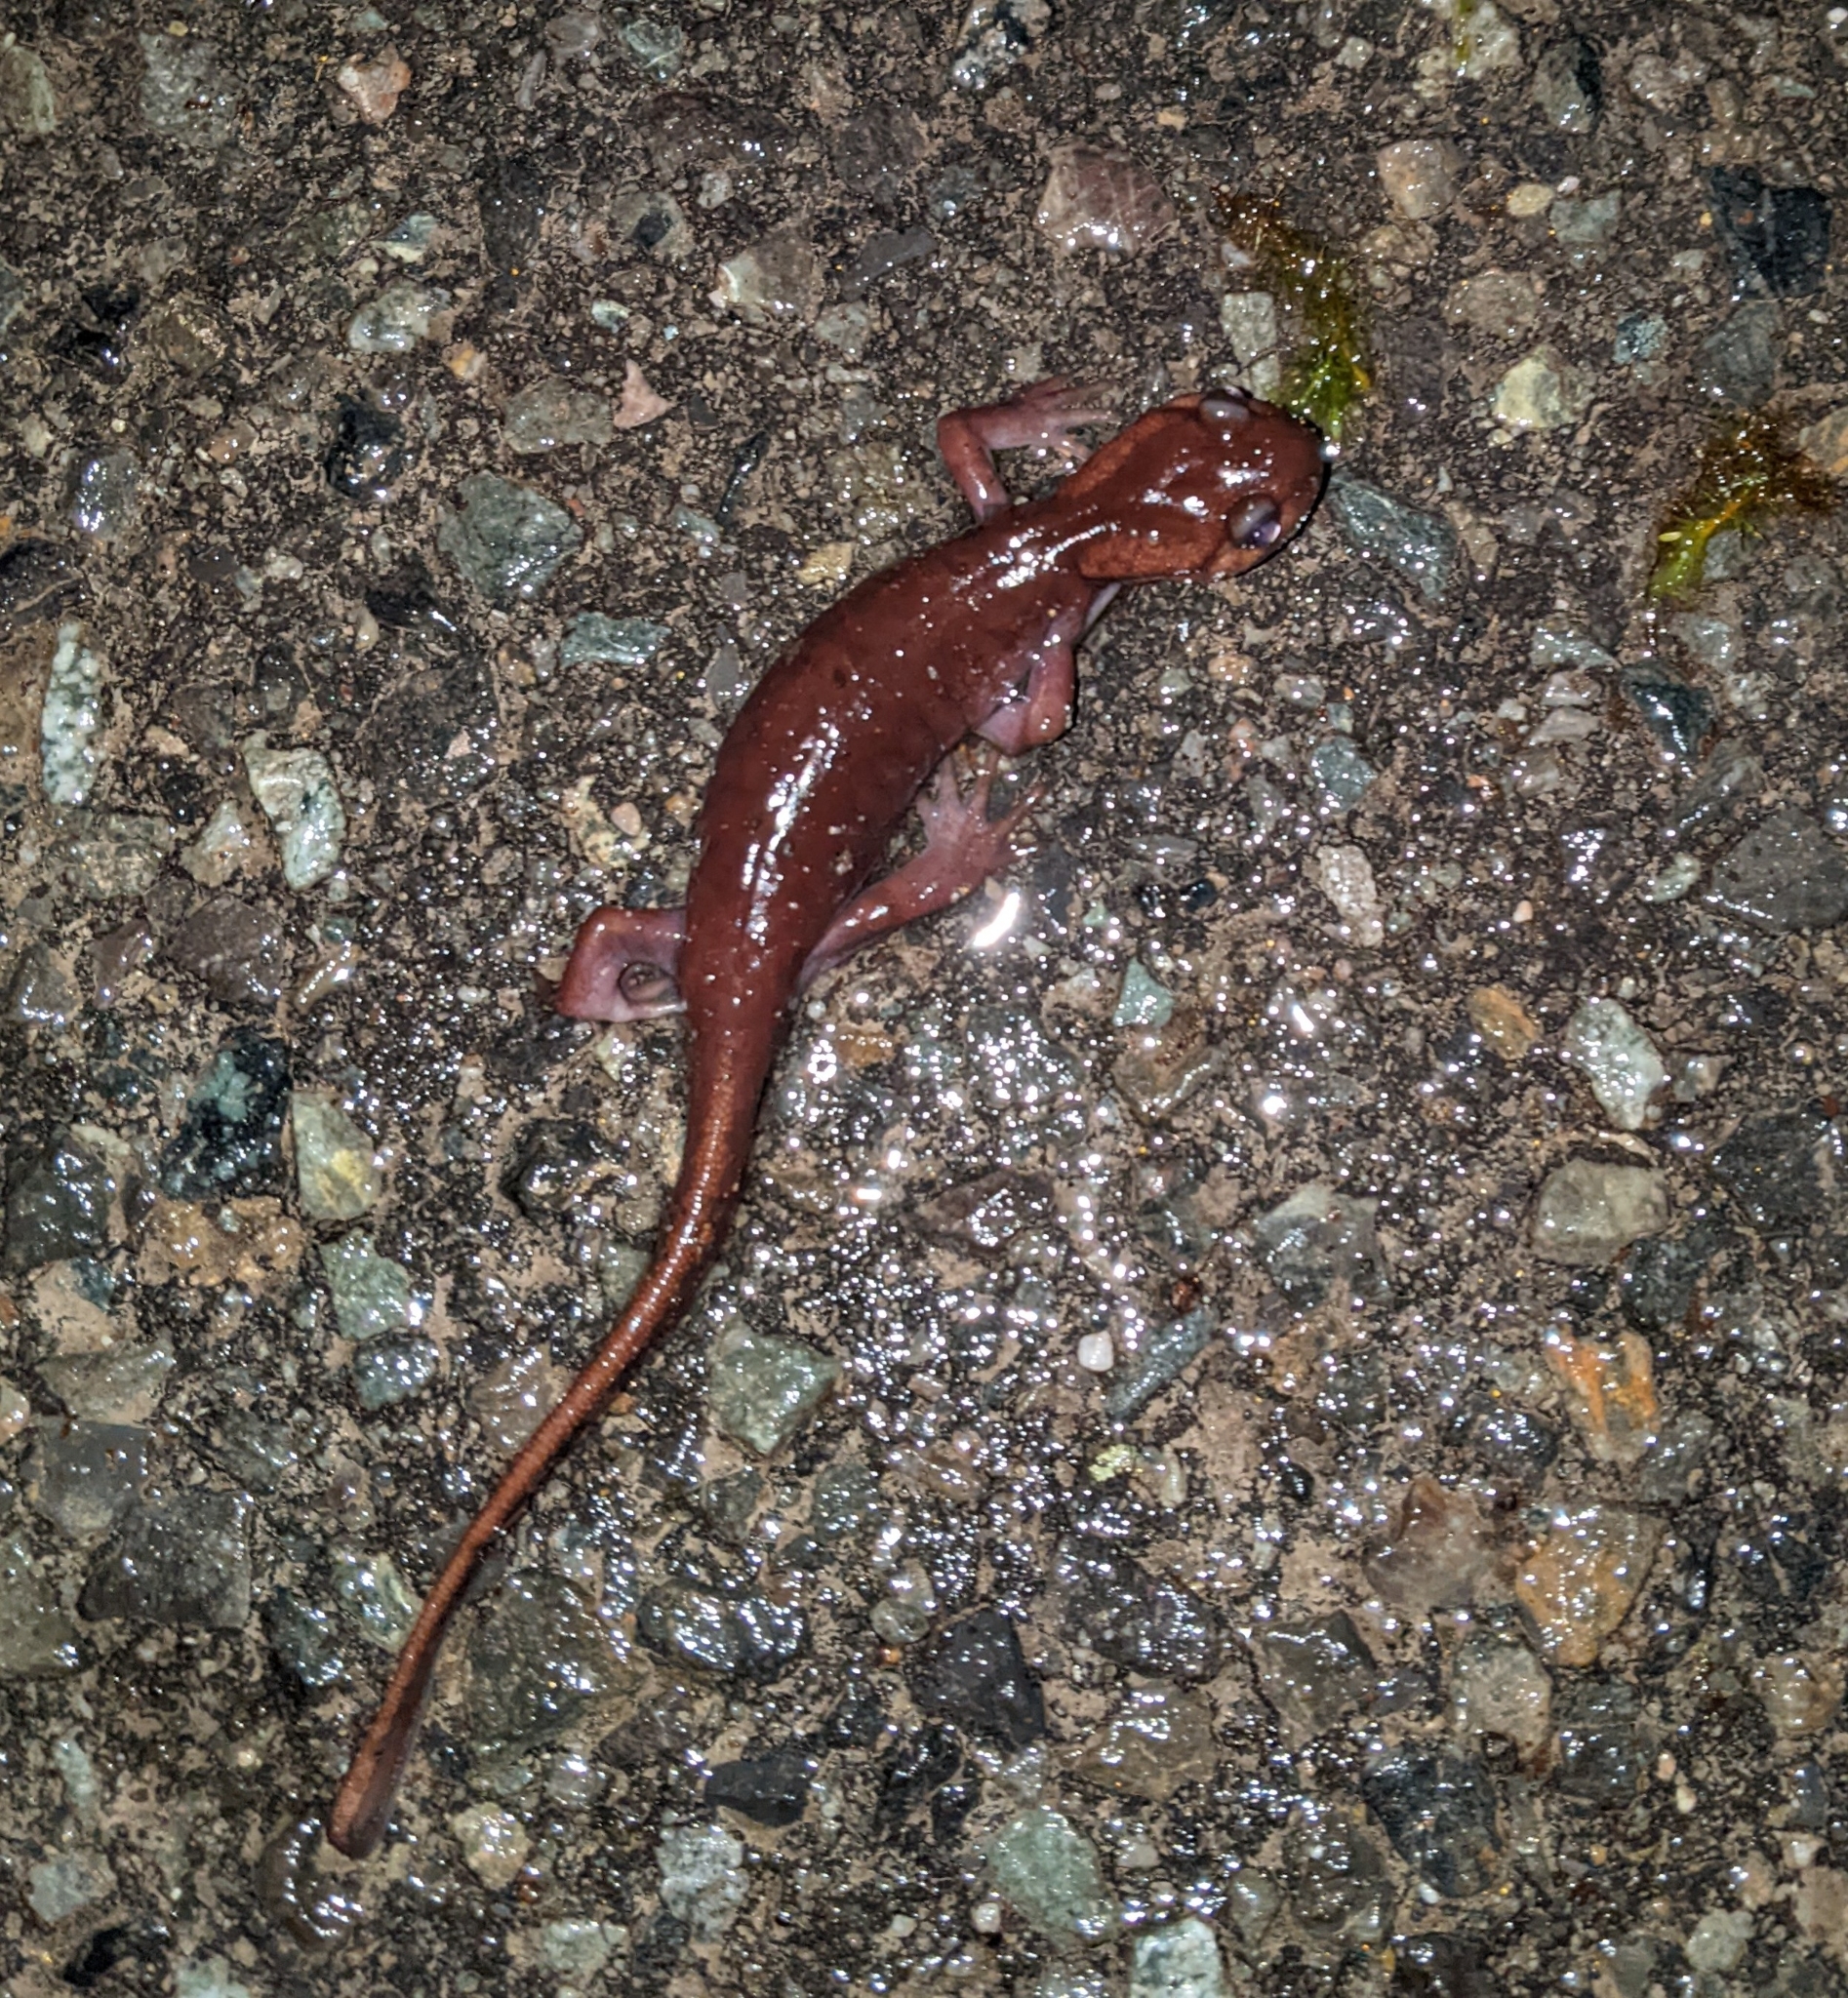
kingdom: Animalia
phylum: Chordata
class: Amphibia
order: Caudata
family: Ambystomatidae
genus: Ambystoma
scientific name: Ambystoma gracile
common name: Northwestern salamander
